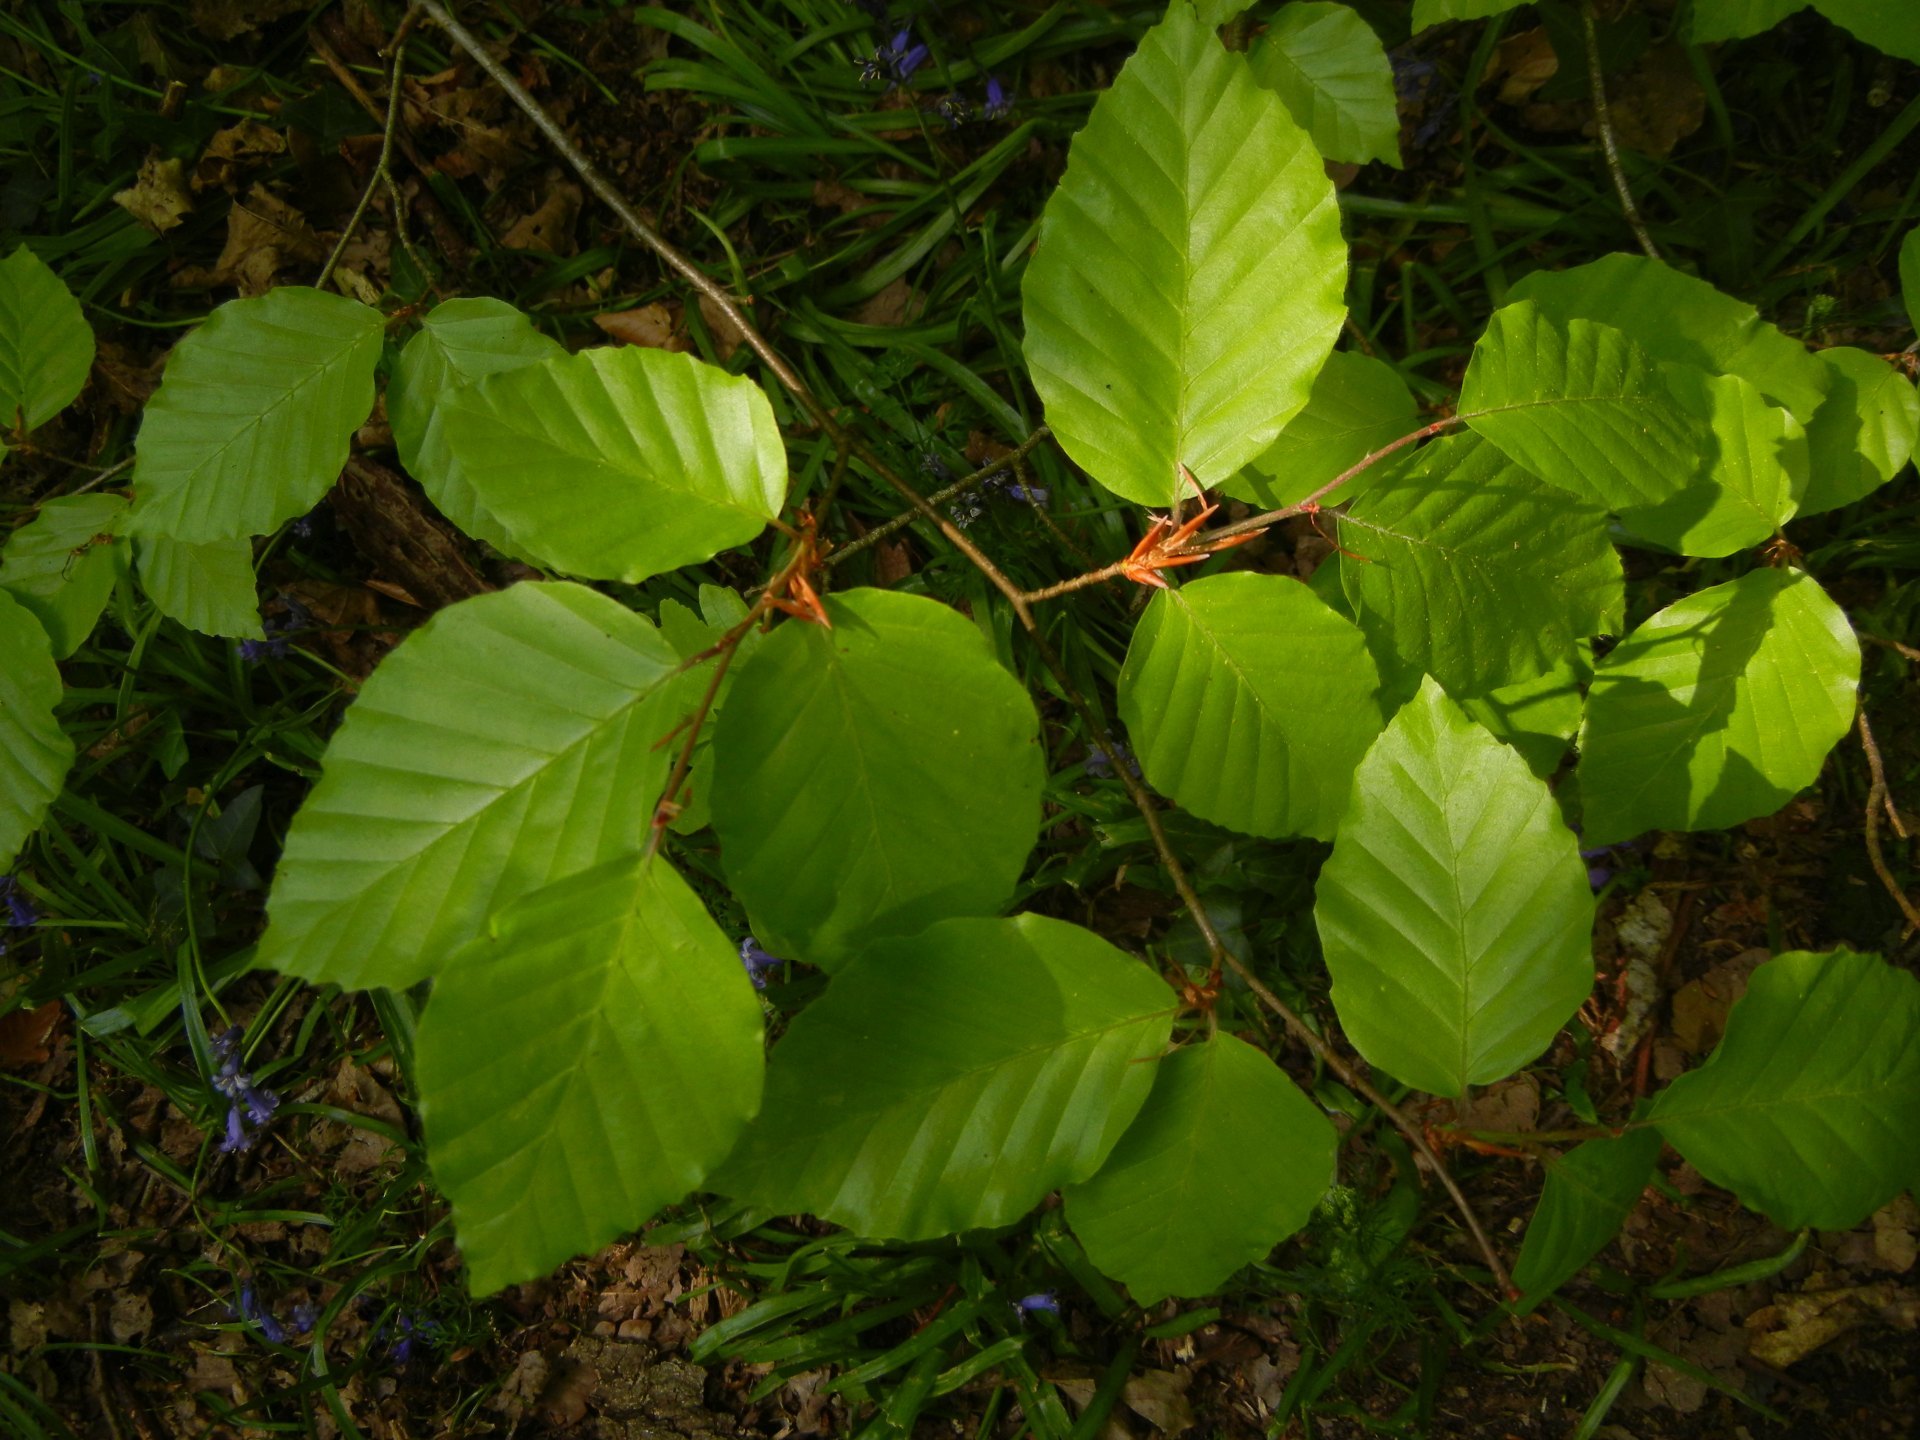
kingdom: Plantae
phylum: Tracheophyta
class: Magnoliopsida
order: Fagales
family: Fagaceae
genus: Fagus
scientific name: Fagus sylvatica
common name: Beech
